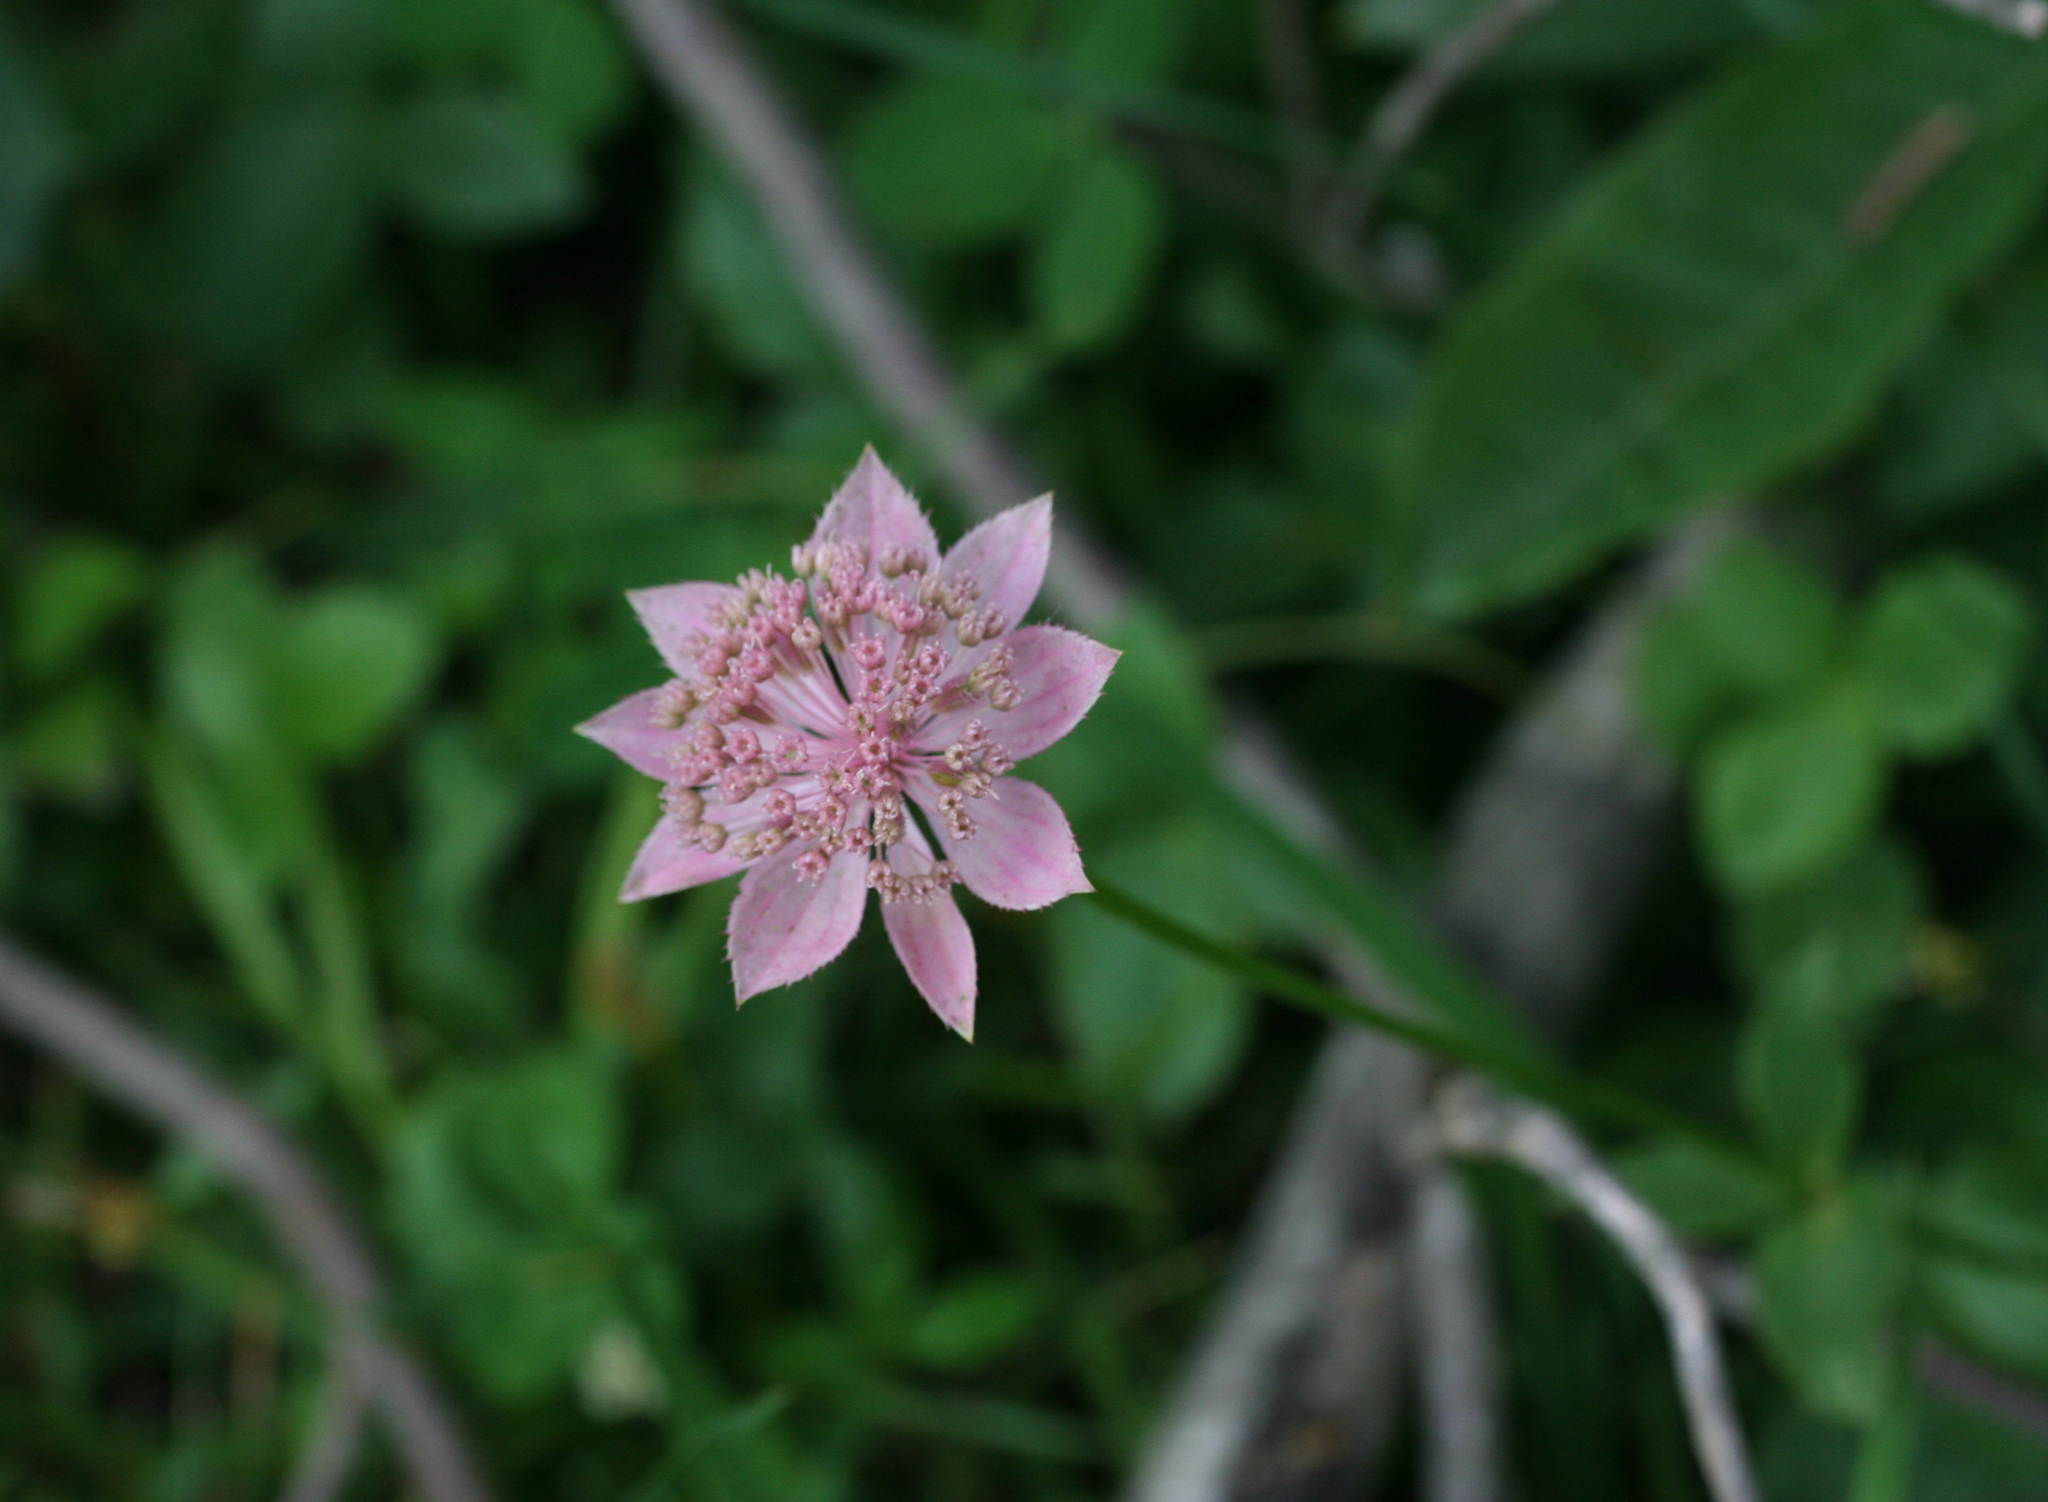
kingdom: Plantae
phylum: Tracheophyta
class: Magnoliopsida
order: Apiales
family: Apiaceae
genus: Astrantia
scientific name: Astrantia maxima
